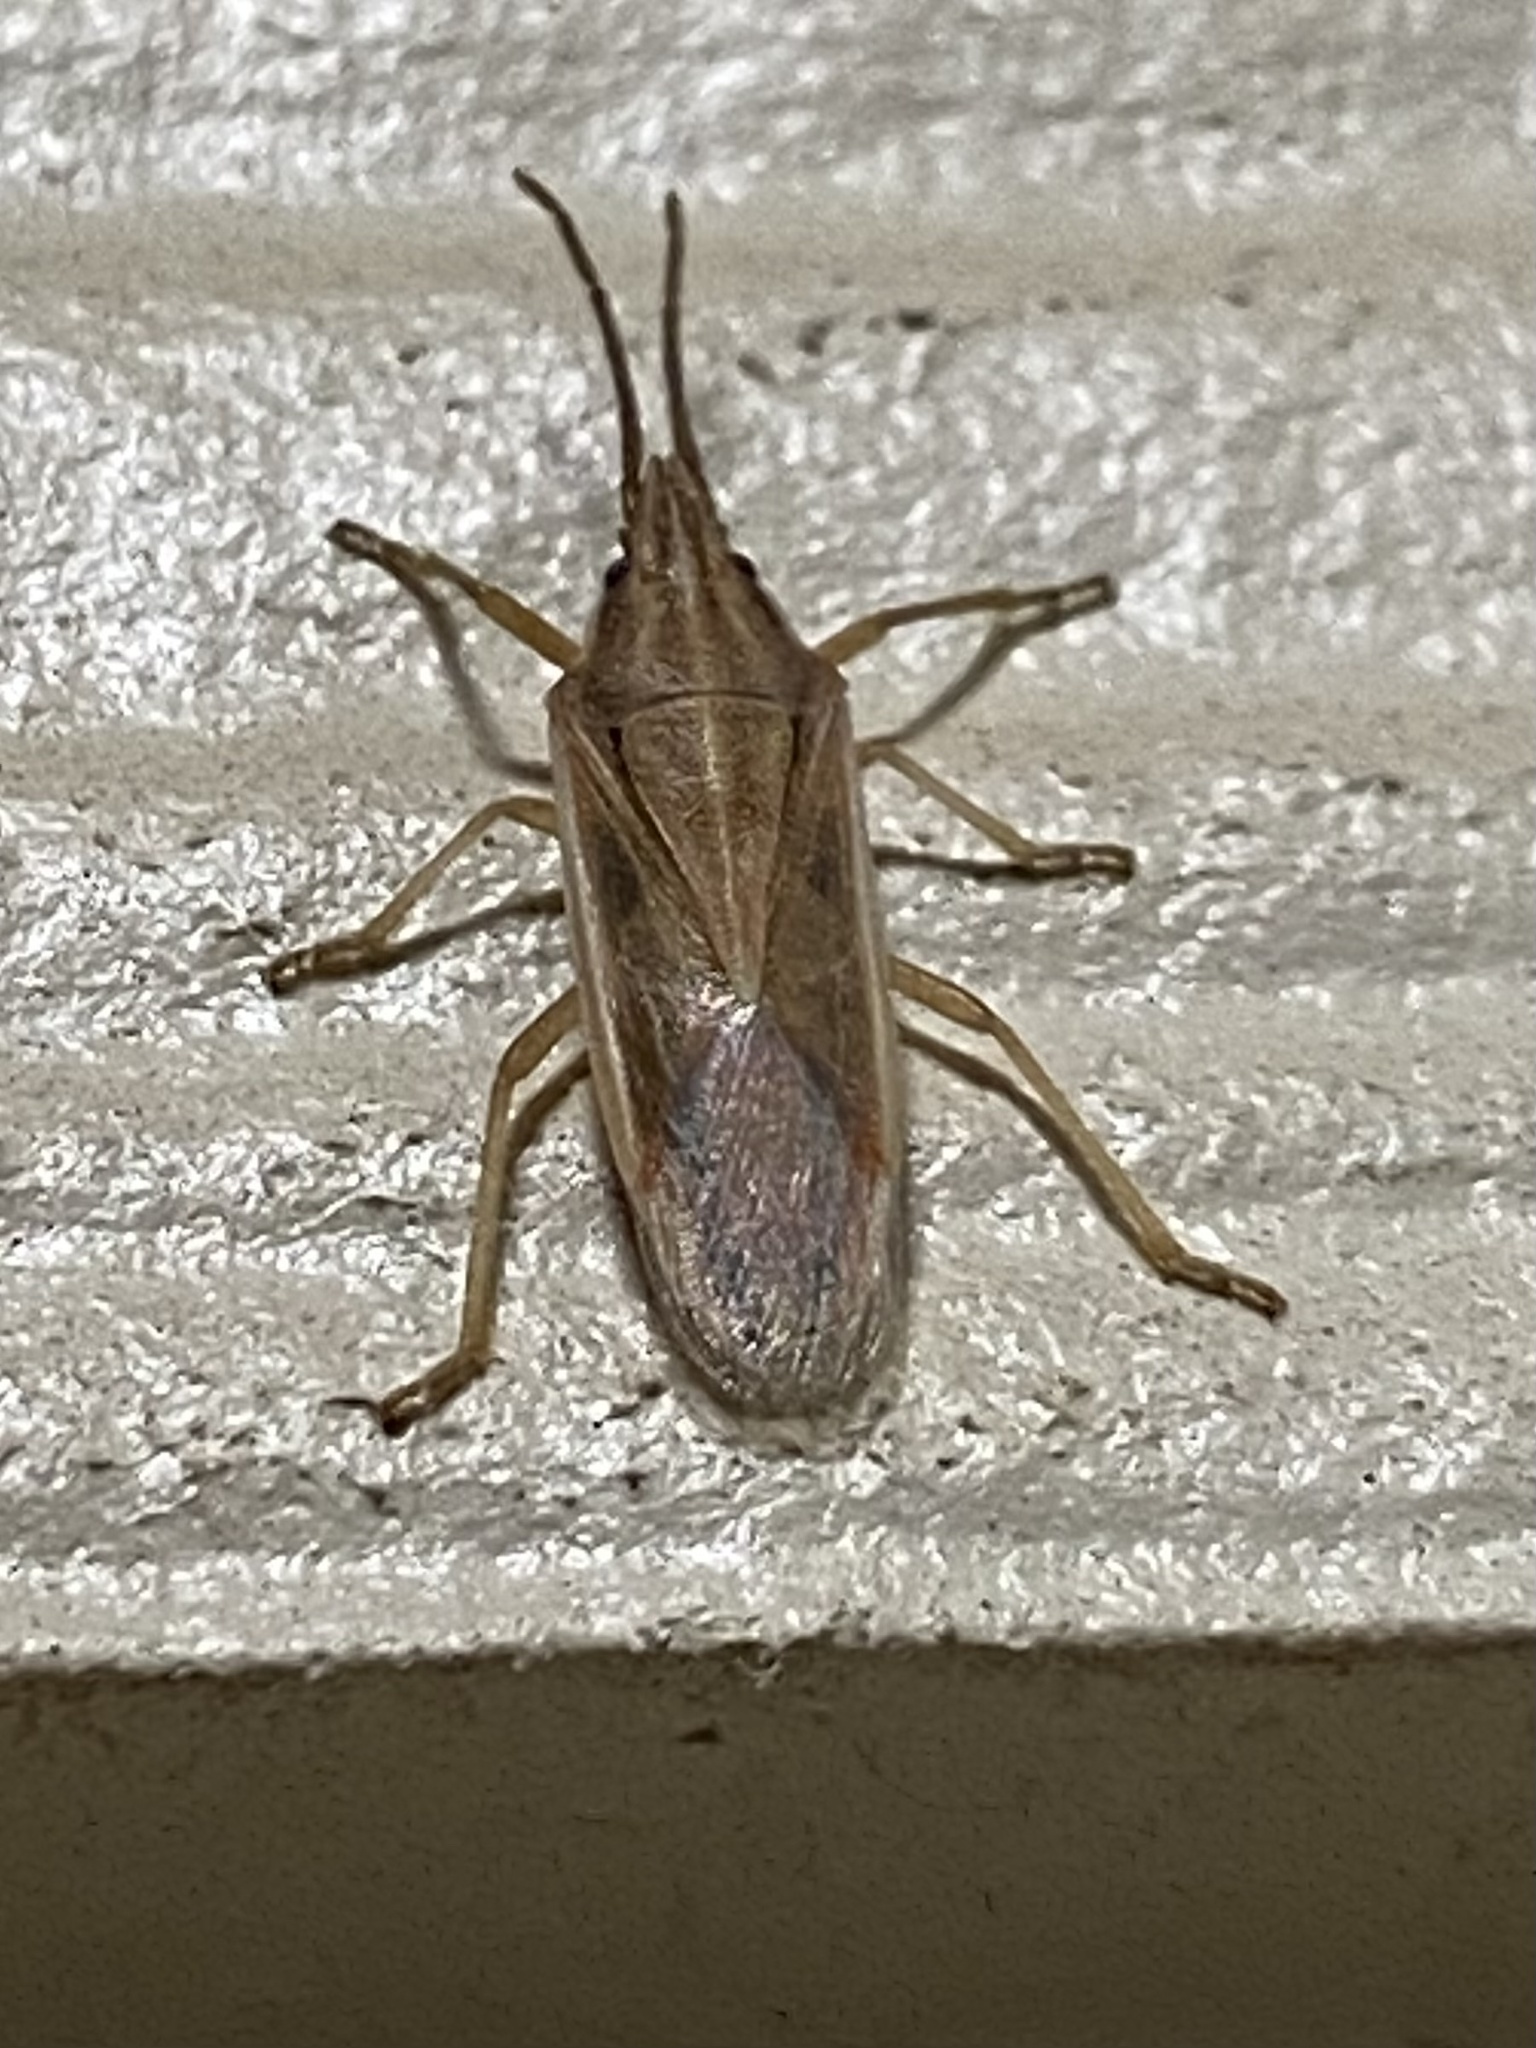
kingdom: Animalia
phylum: Arthropoda
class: Insecta
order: Hemiptera
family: Pentatomidae
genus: Mecidea
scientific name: Mecidea
